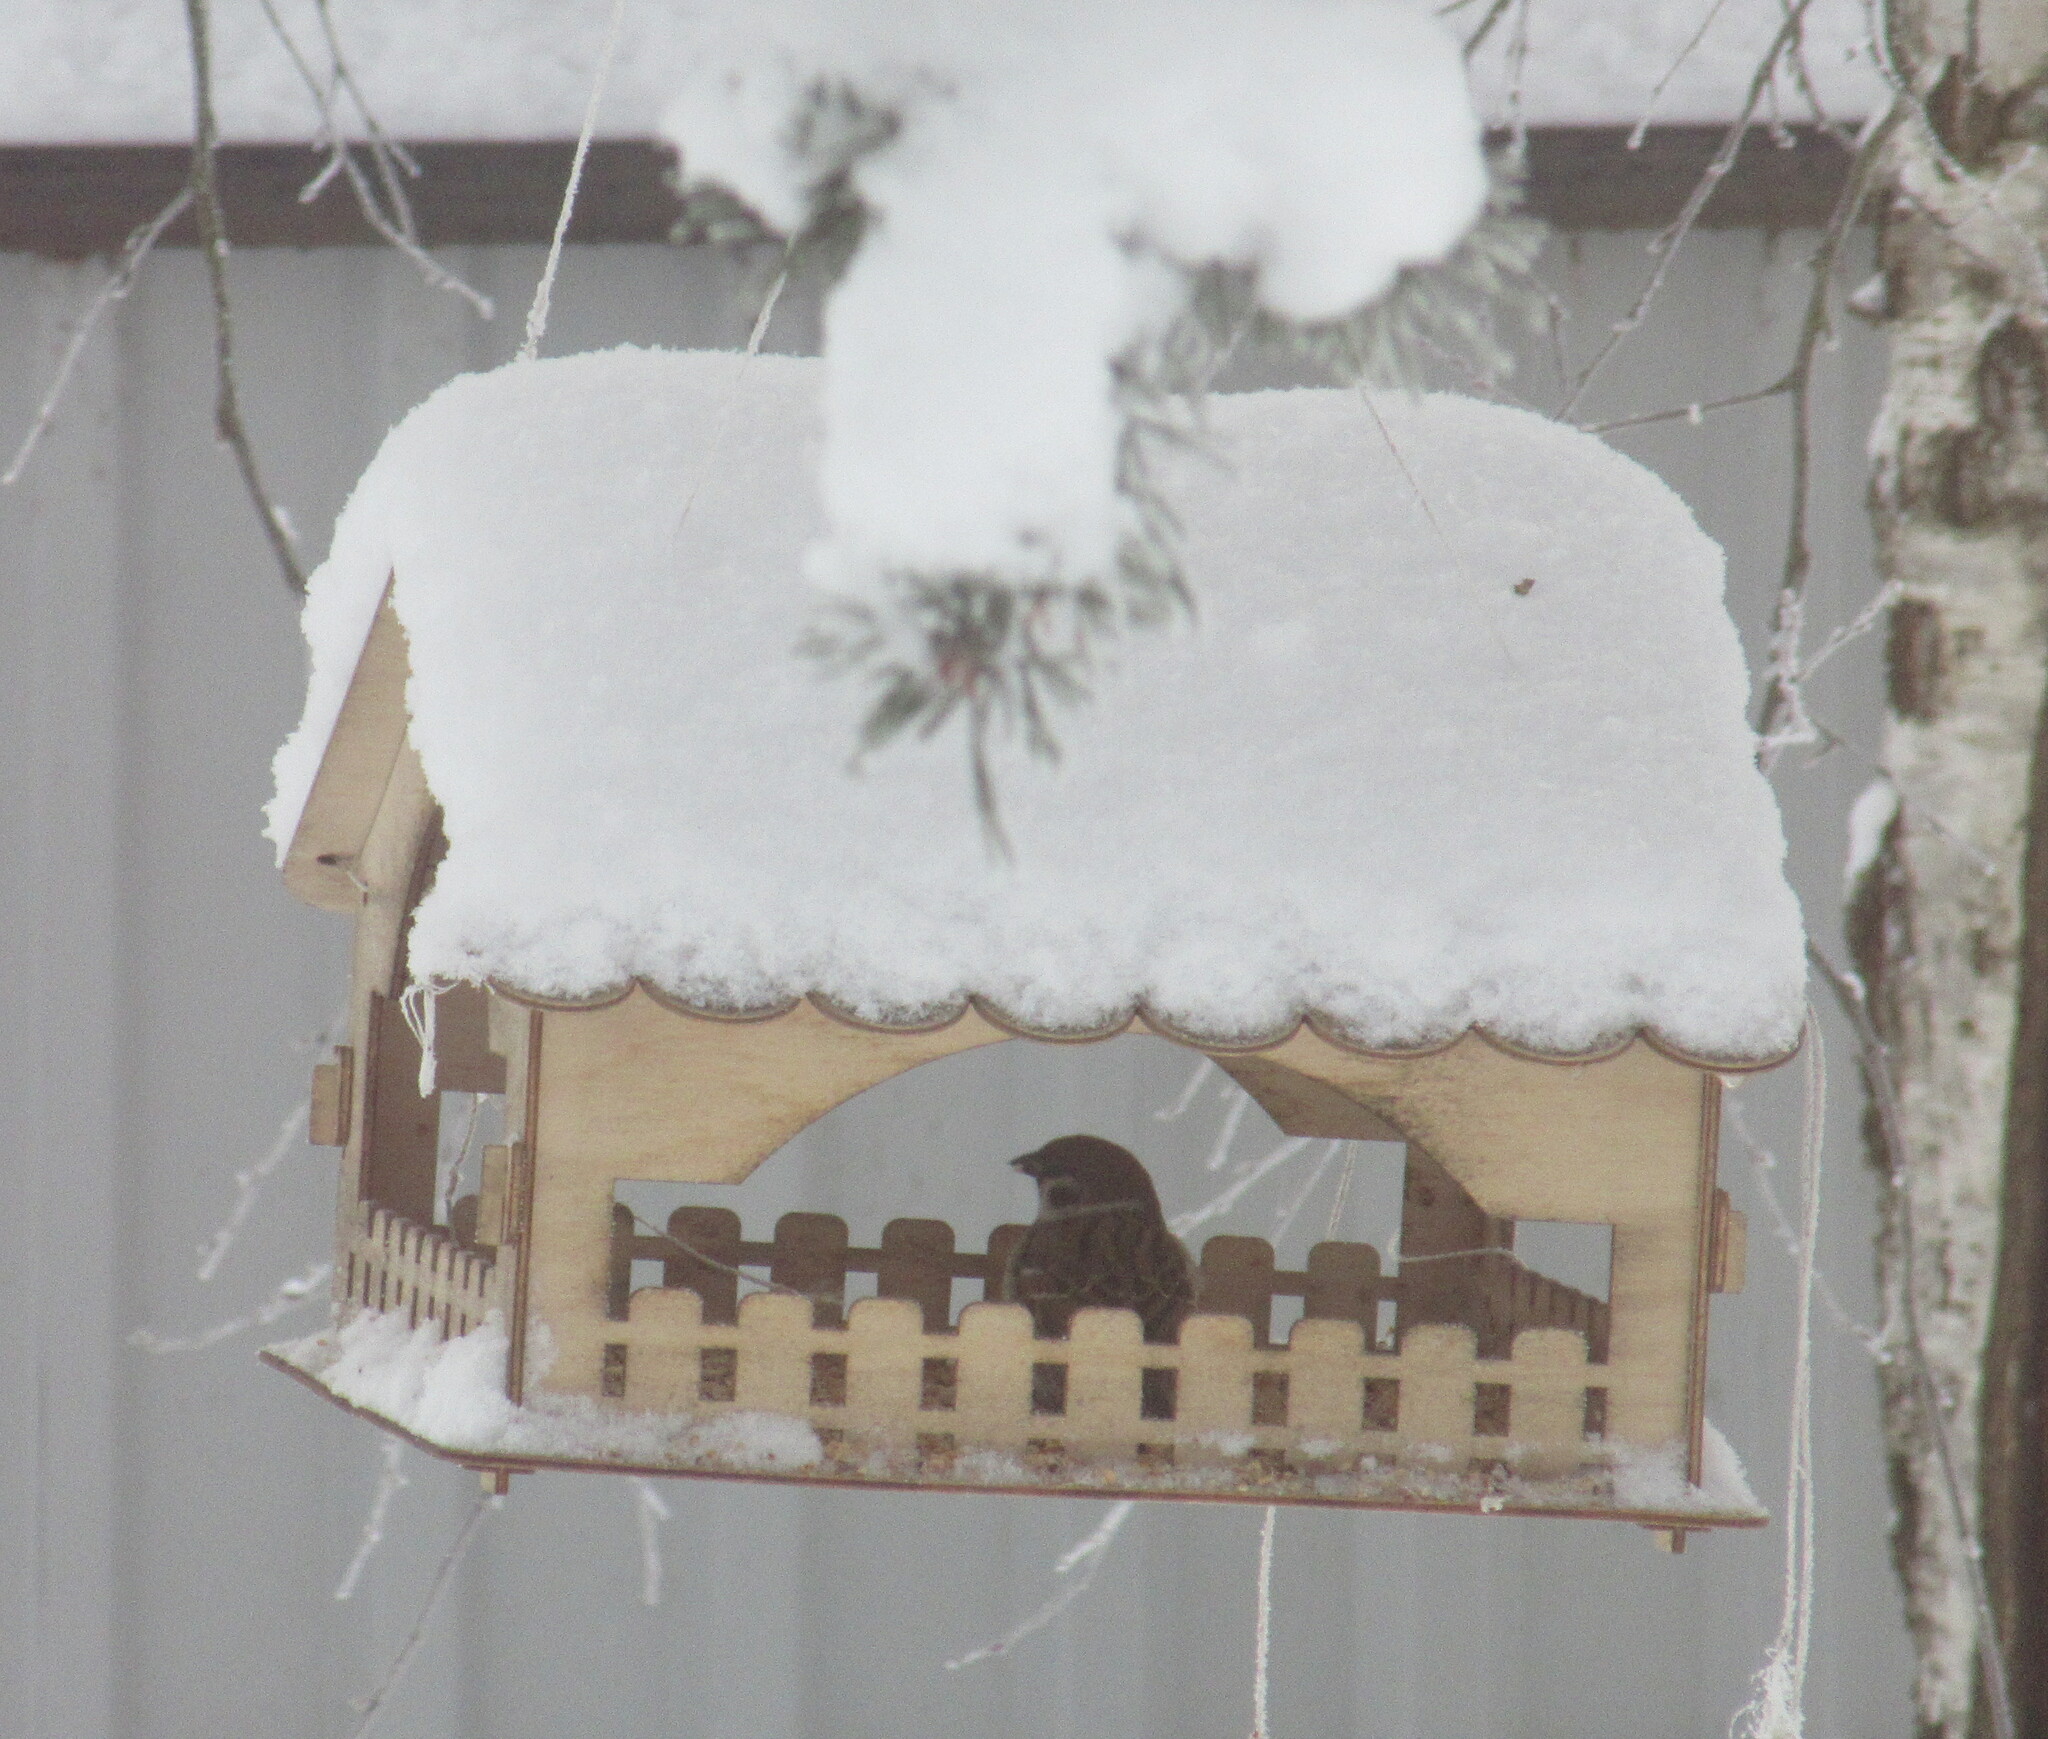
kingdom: Animalia
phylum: Chordata
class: Aves
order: Passeriformes
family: Passeridae
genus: Passer
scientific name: Passer montanus
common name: Eurasian tree sparrow
